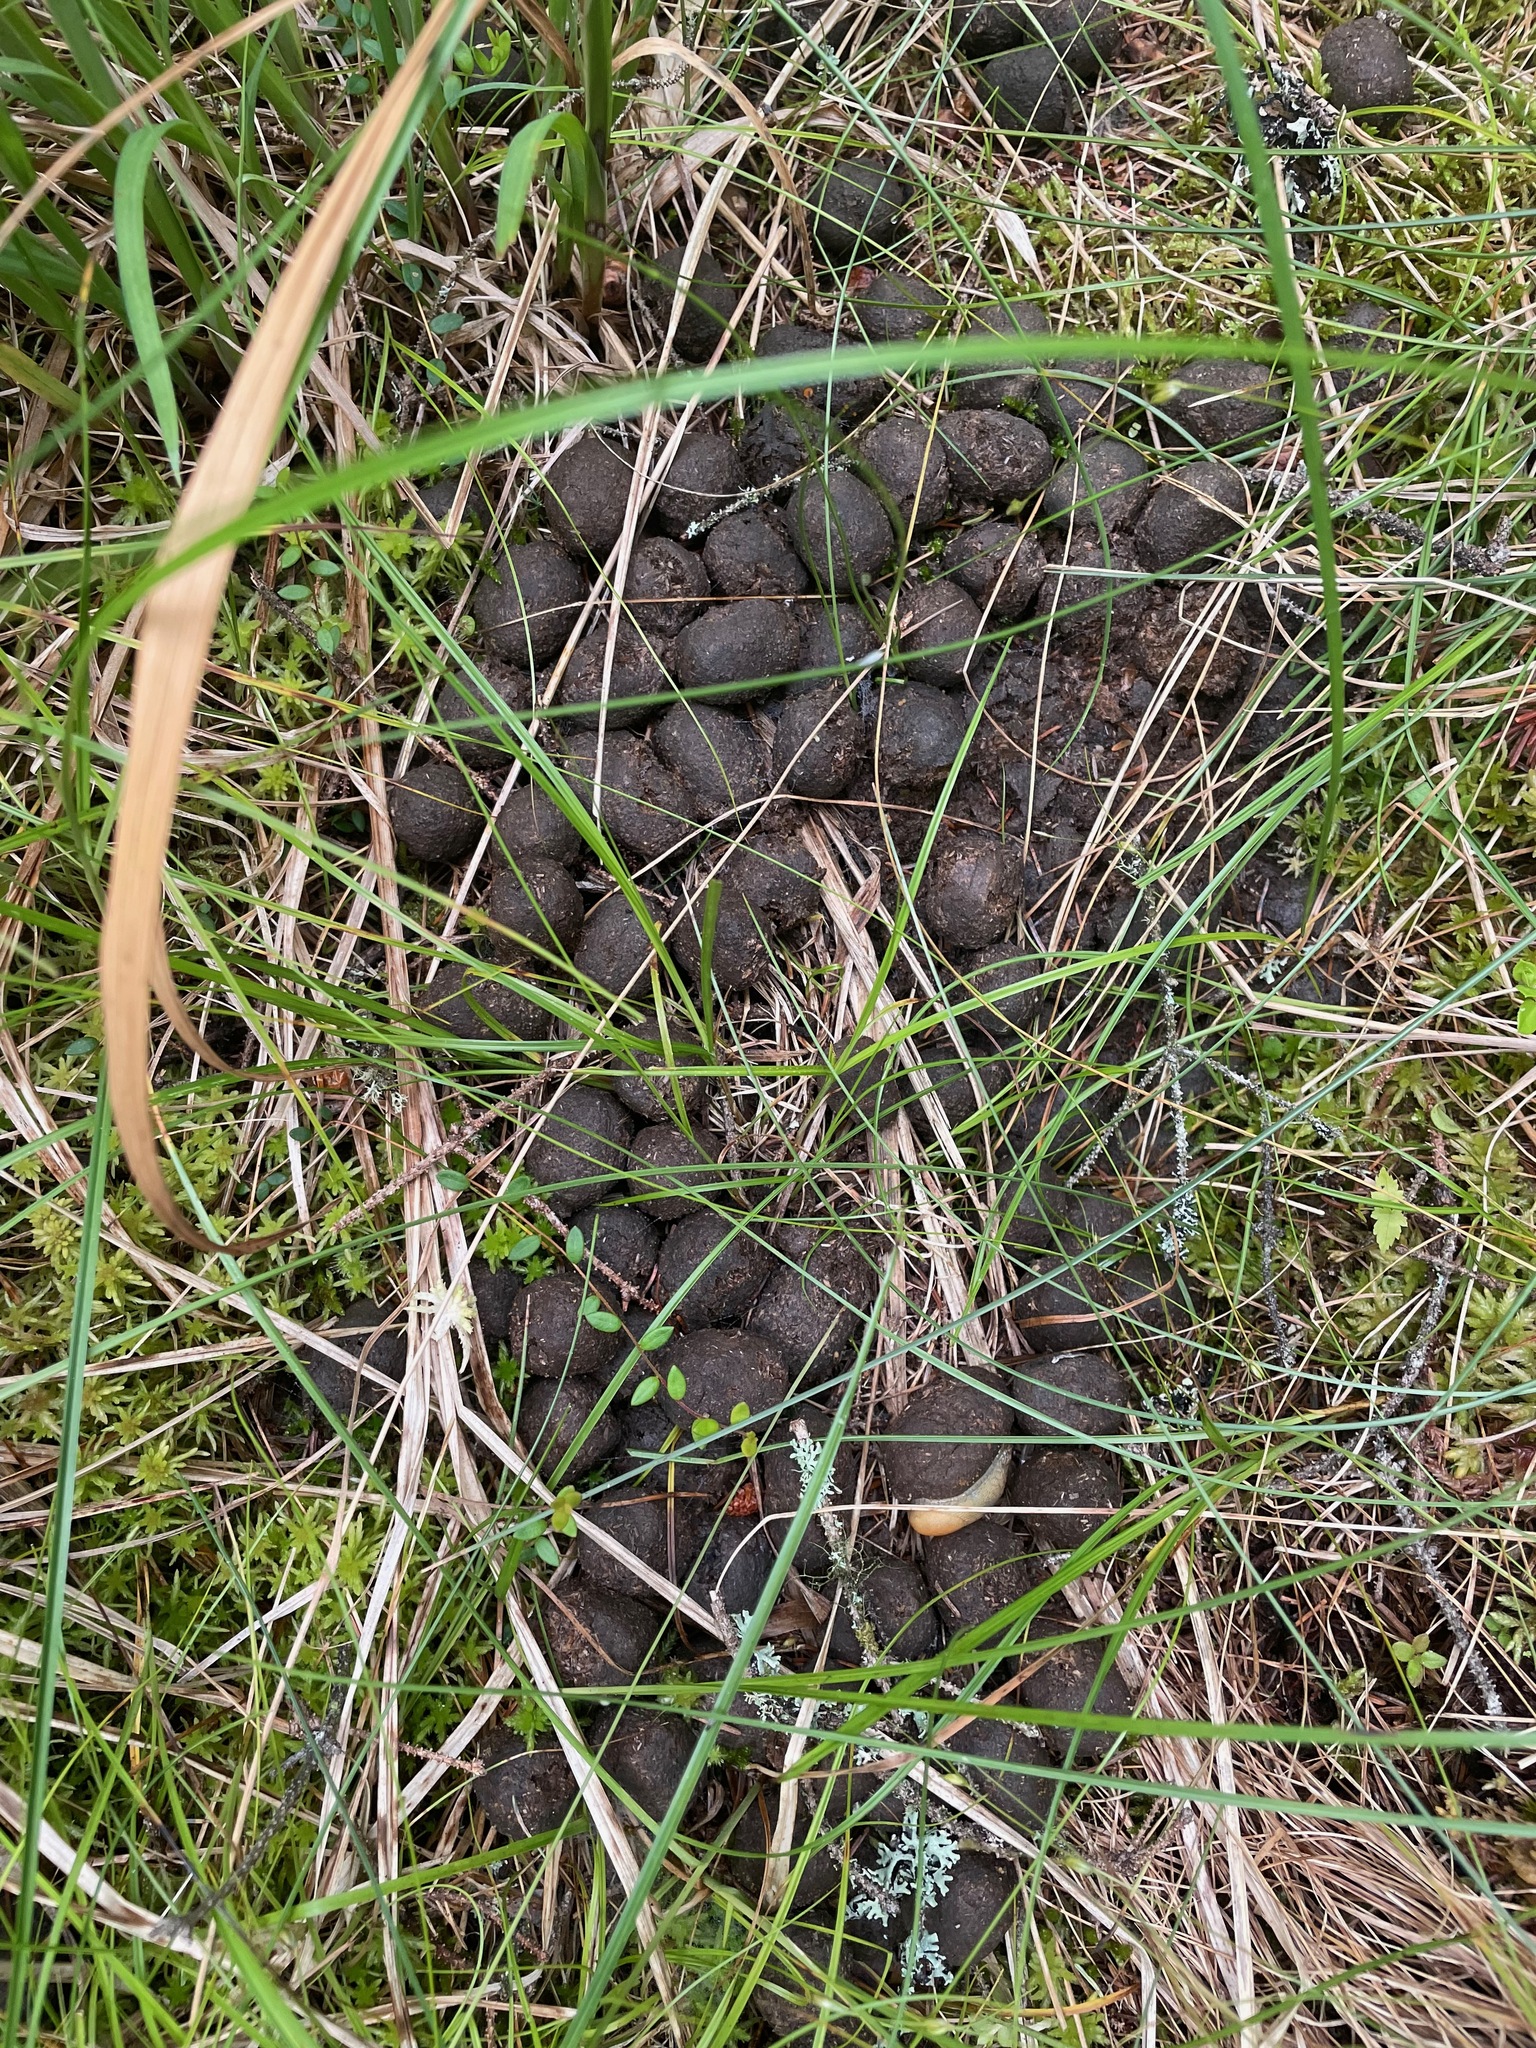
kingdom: Animalia
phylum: Chordata
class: Mammalia
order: Artiodactyla
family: Cervidae
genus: Alces
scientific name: Alces alces
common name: Moose
